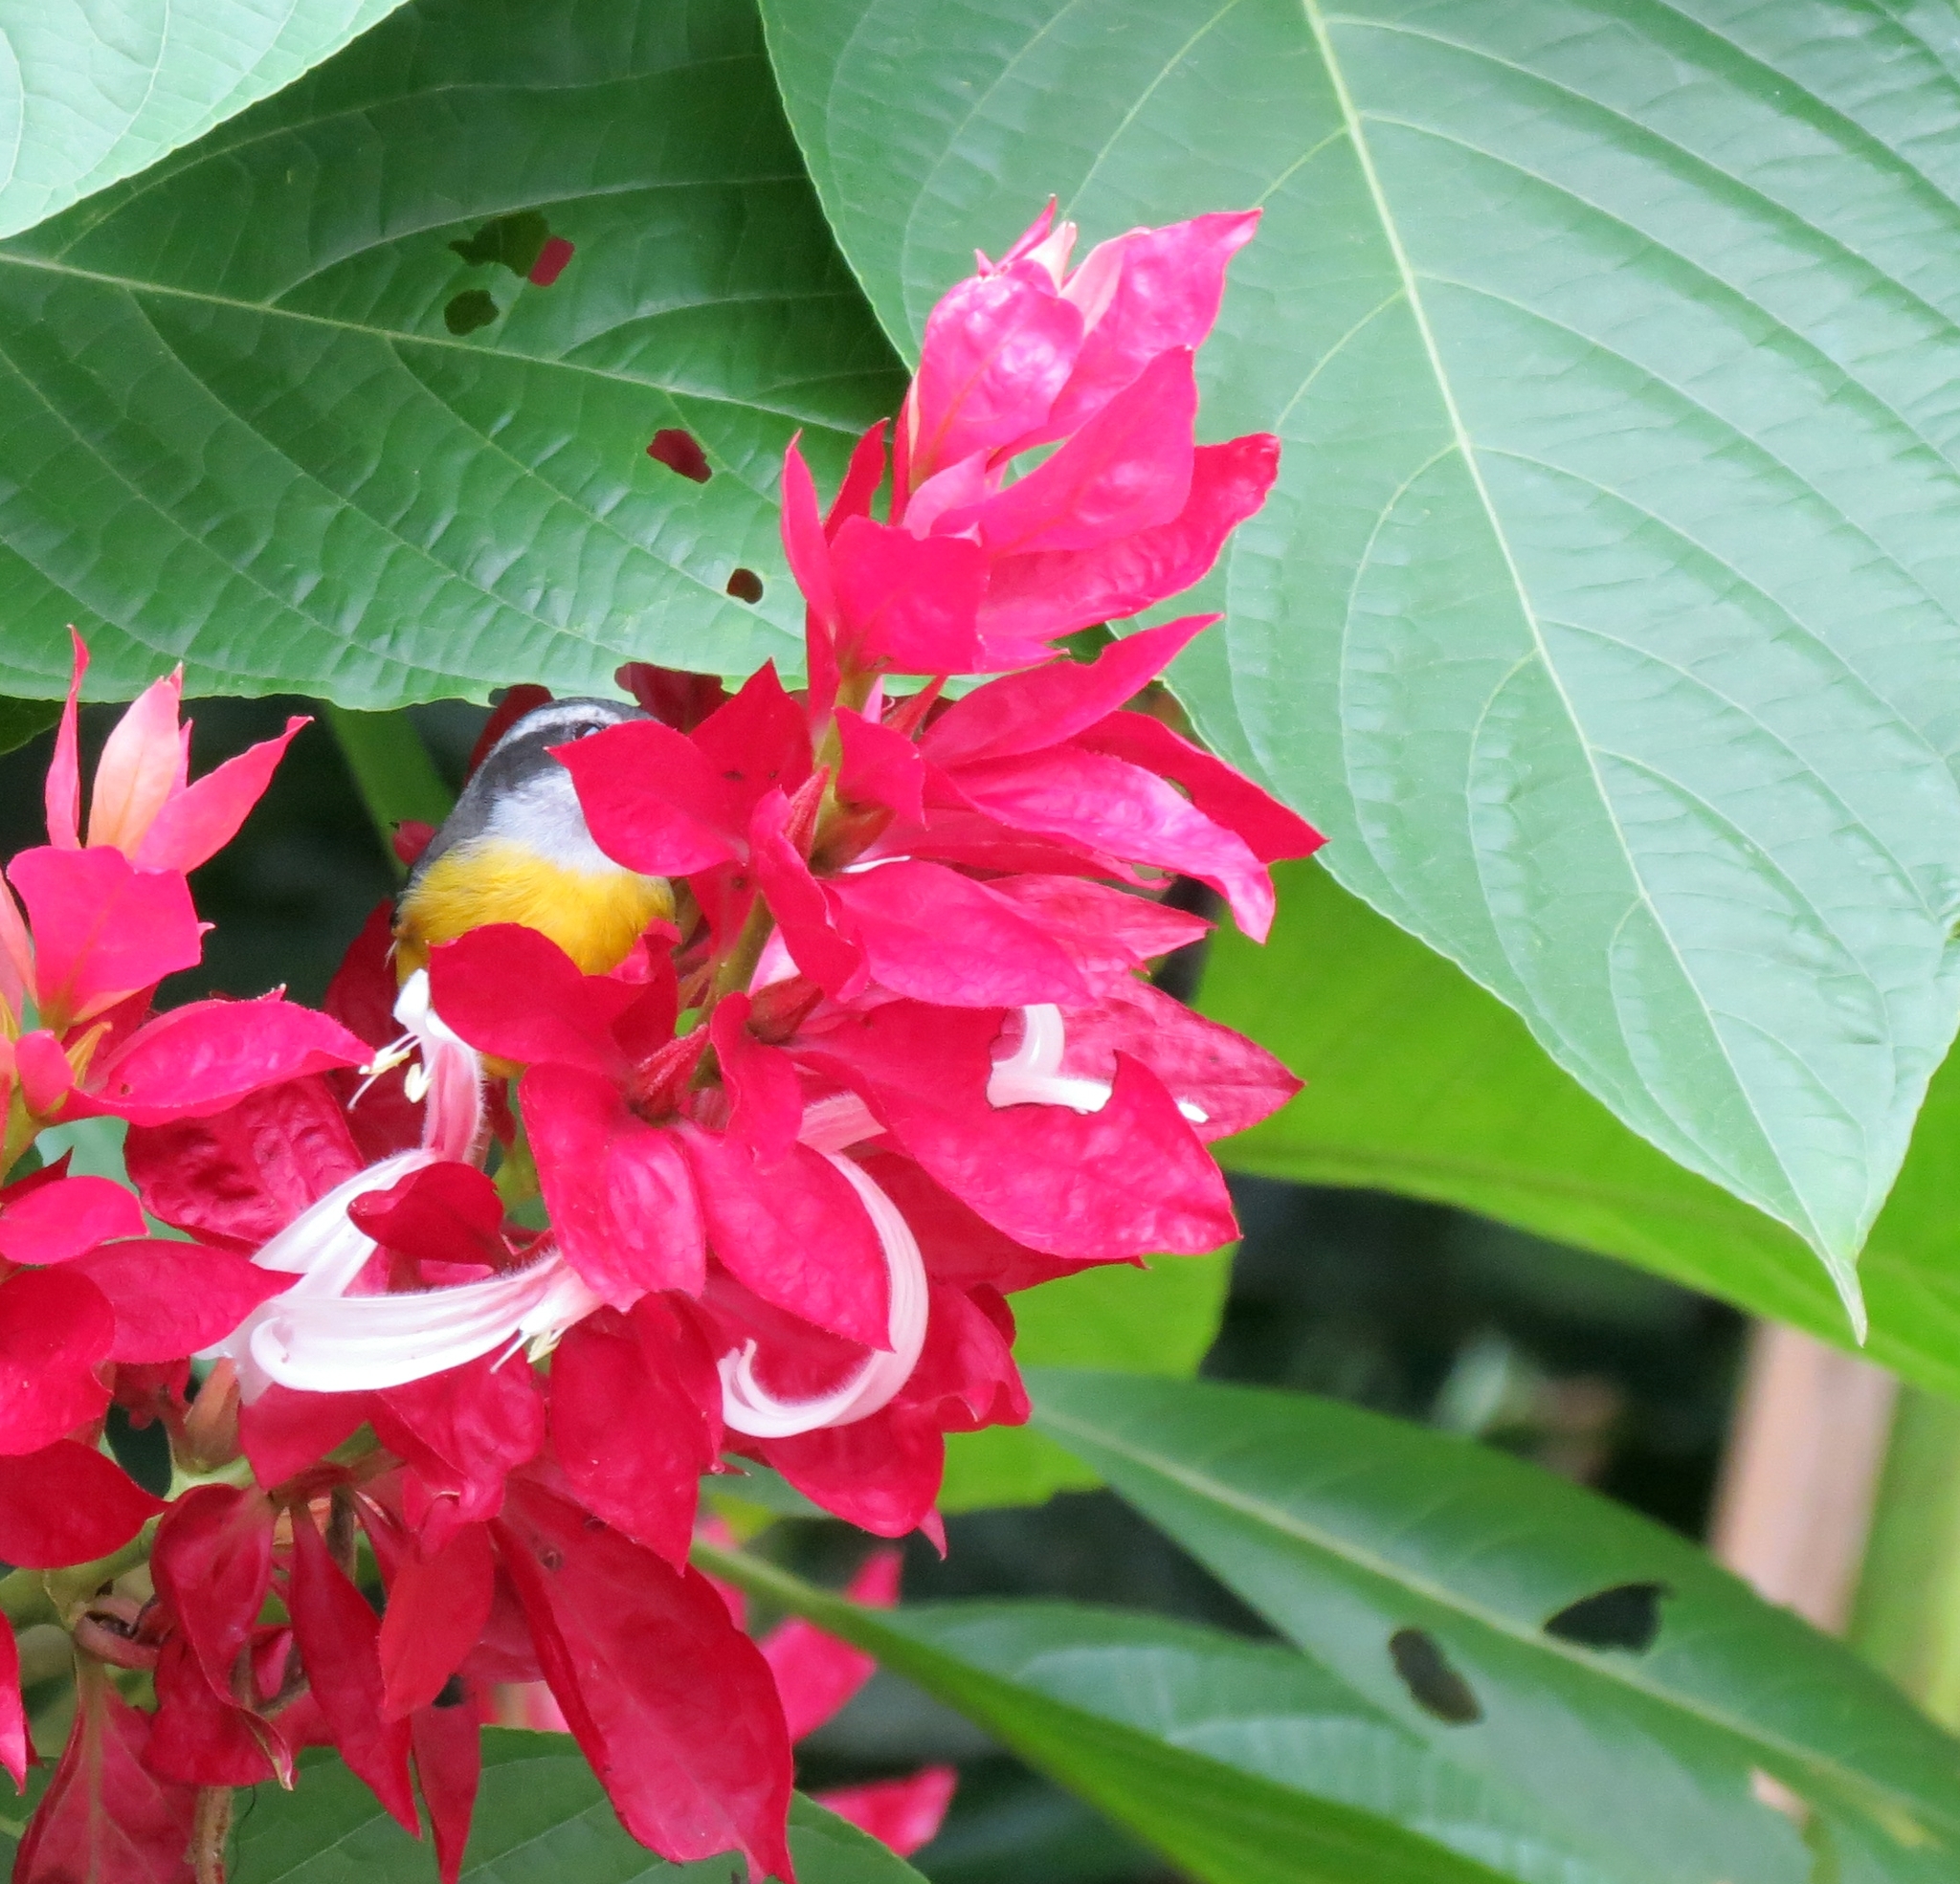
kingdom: Animalia
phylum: Chordata
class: Aves
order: Passeriformes
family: Thraupidae
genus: Coereba
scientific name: Coereba flaveola
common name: Bananaquit
